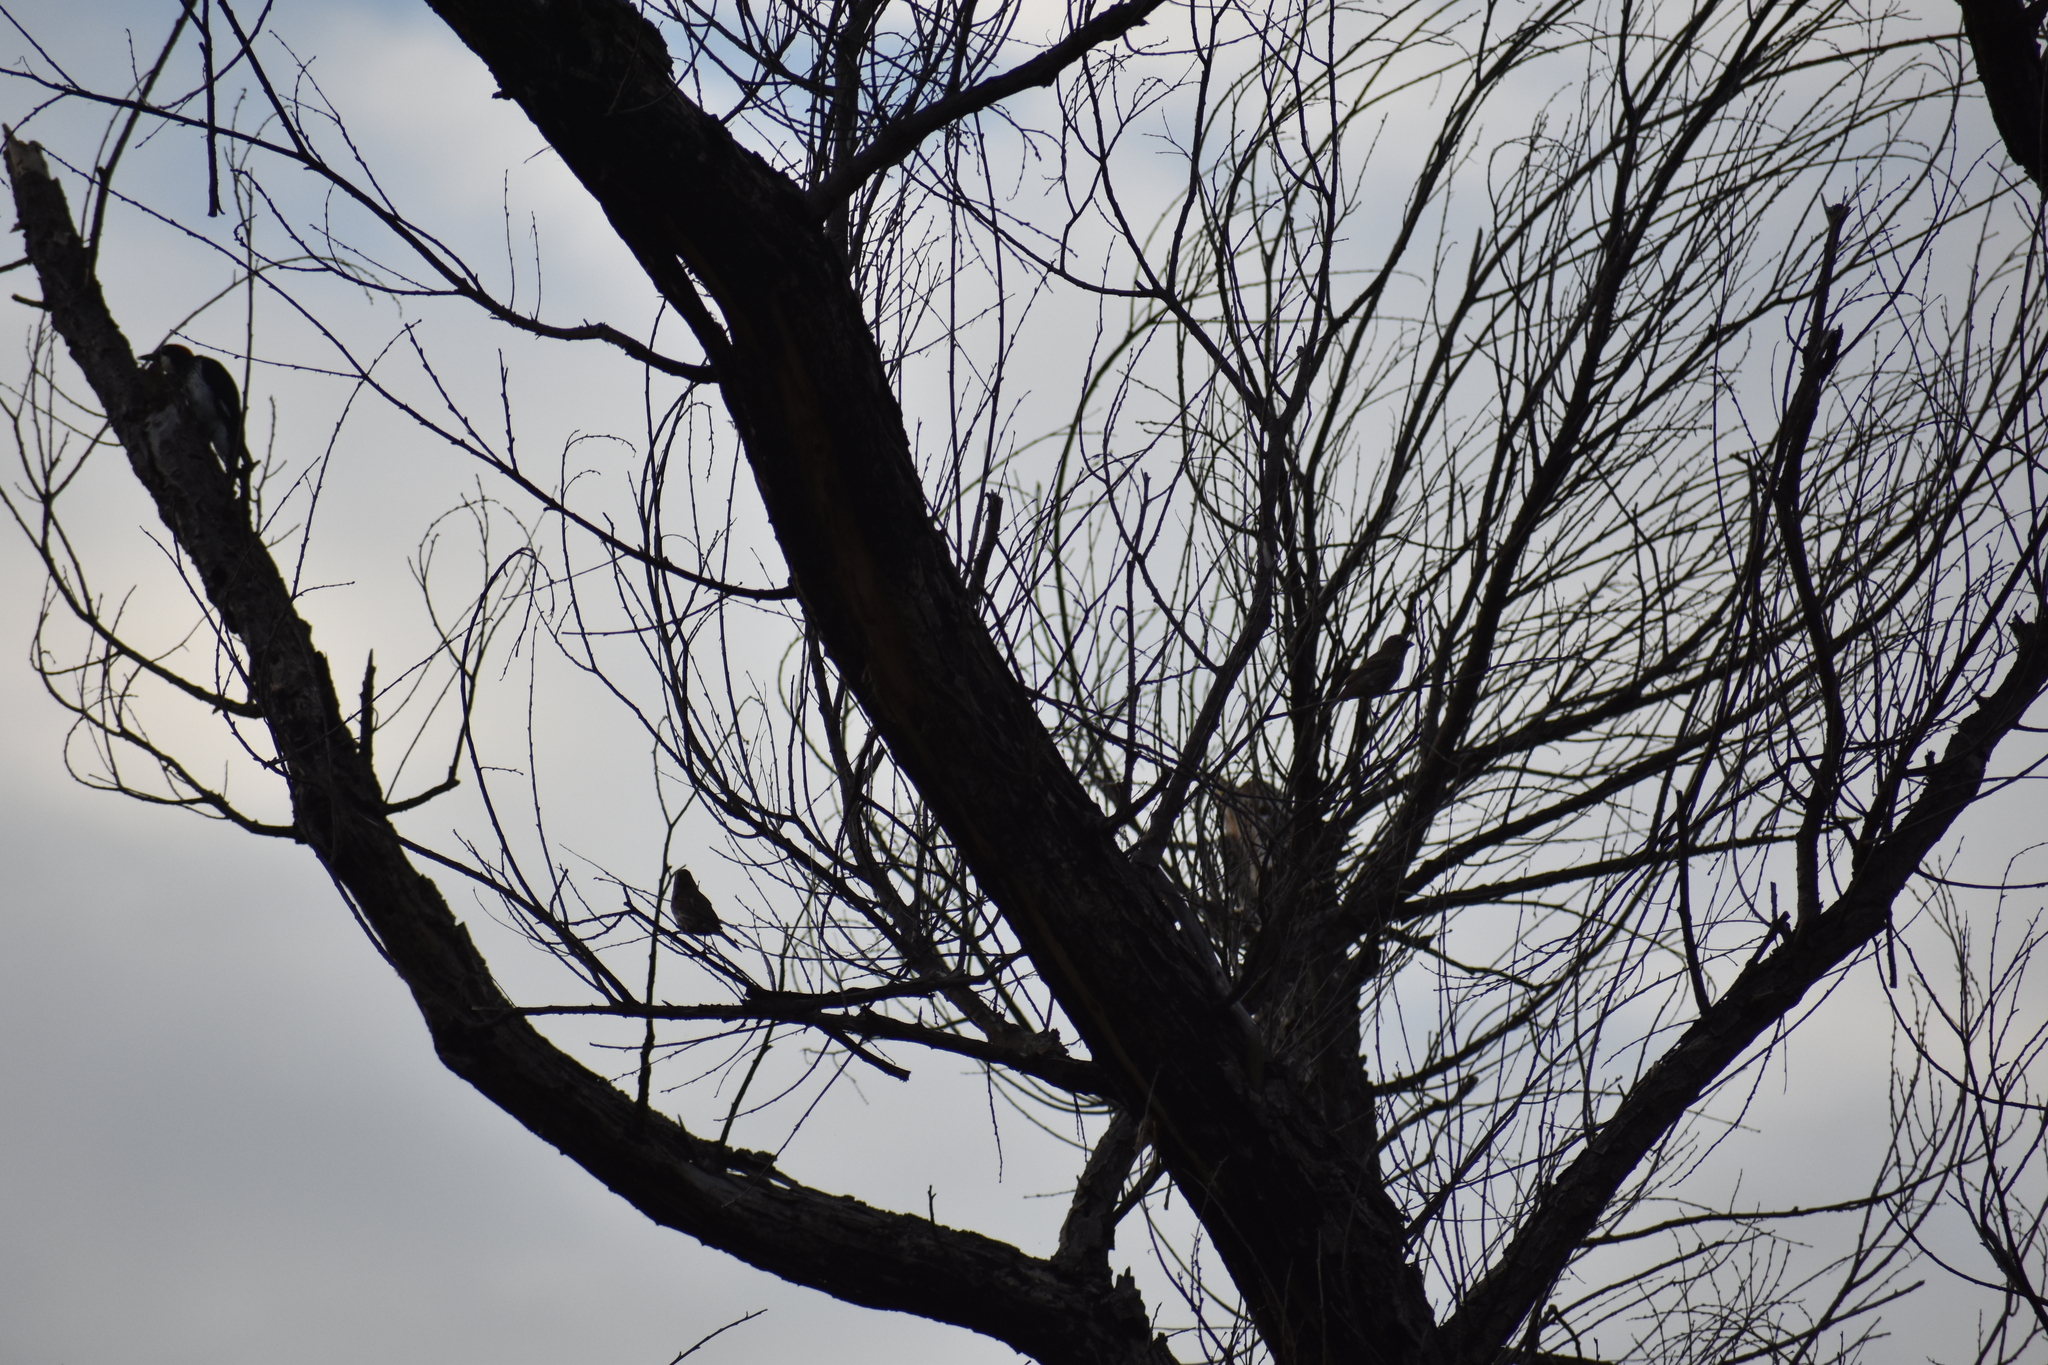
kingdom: Animalia
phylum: Chordata
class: Aves
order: Passeriformes
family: Fringillidae
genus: Haemorhous
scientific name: Haemorhous mexicanus
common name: House finch
